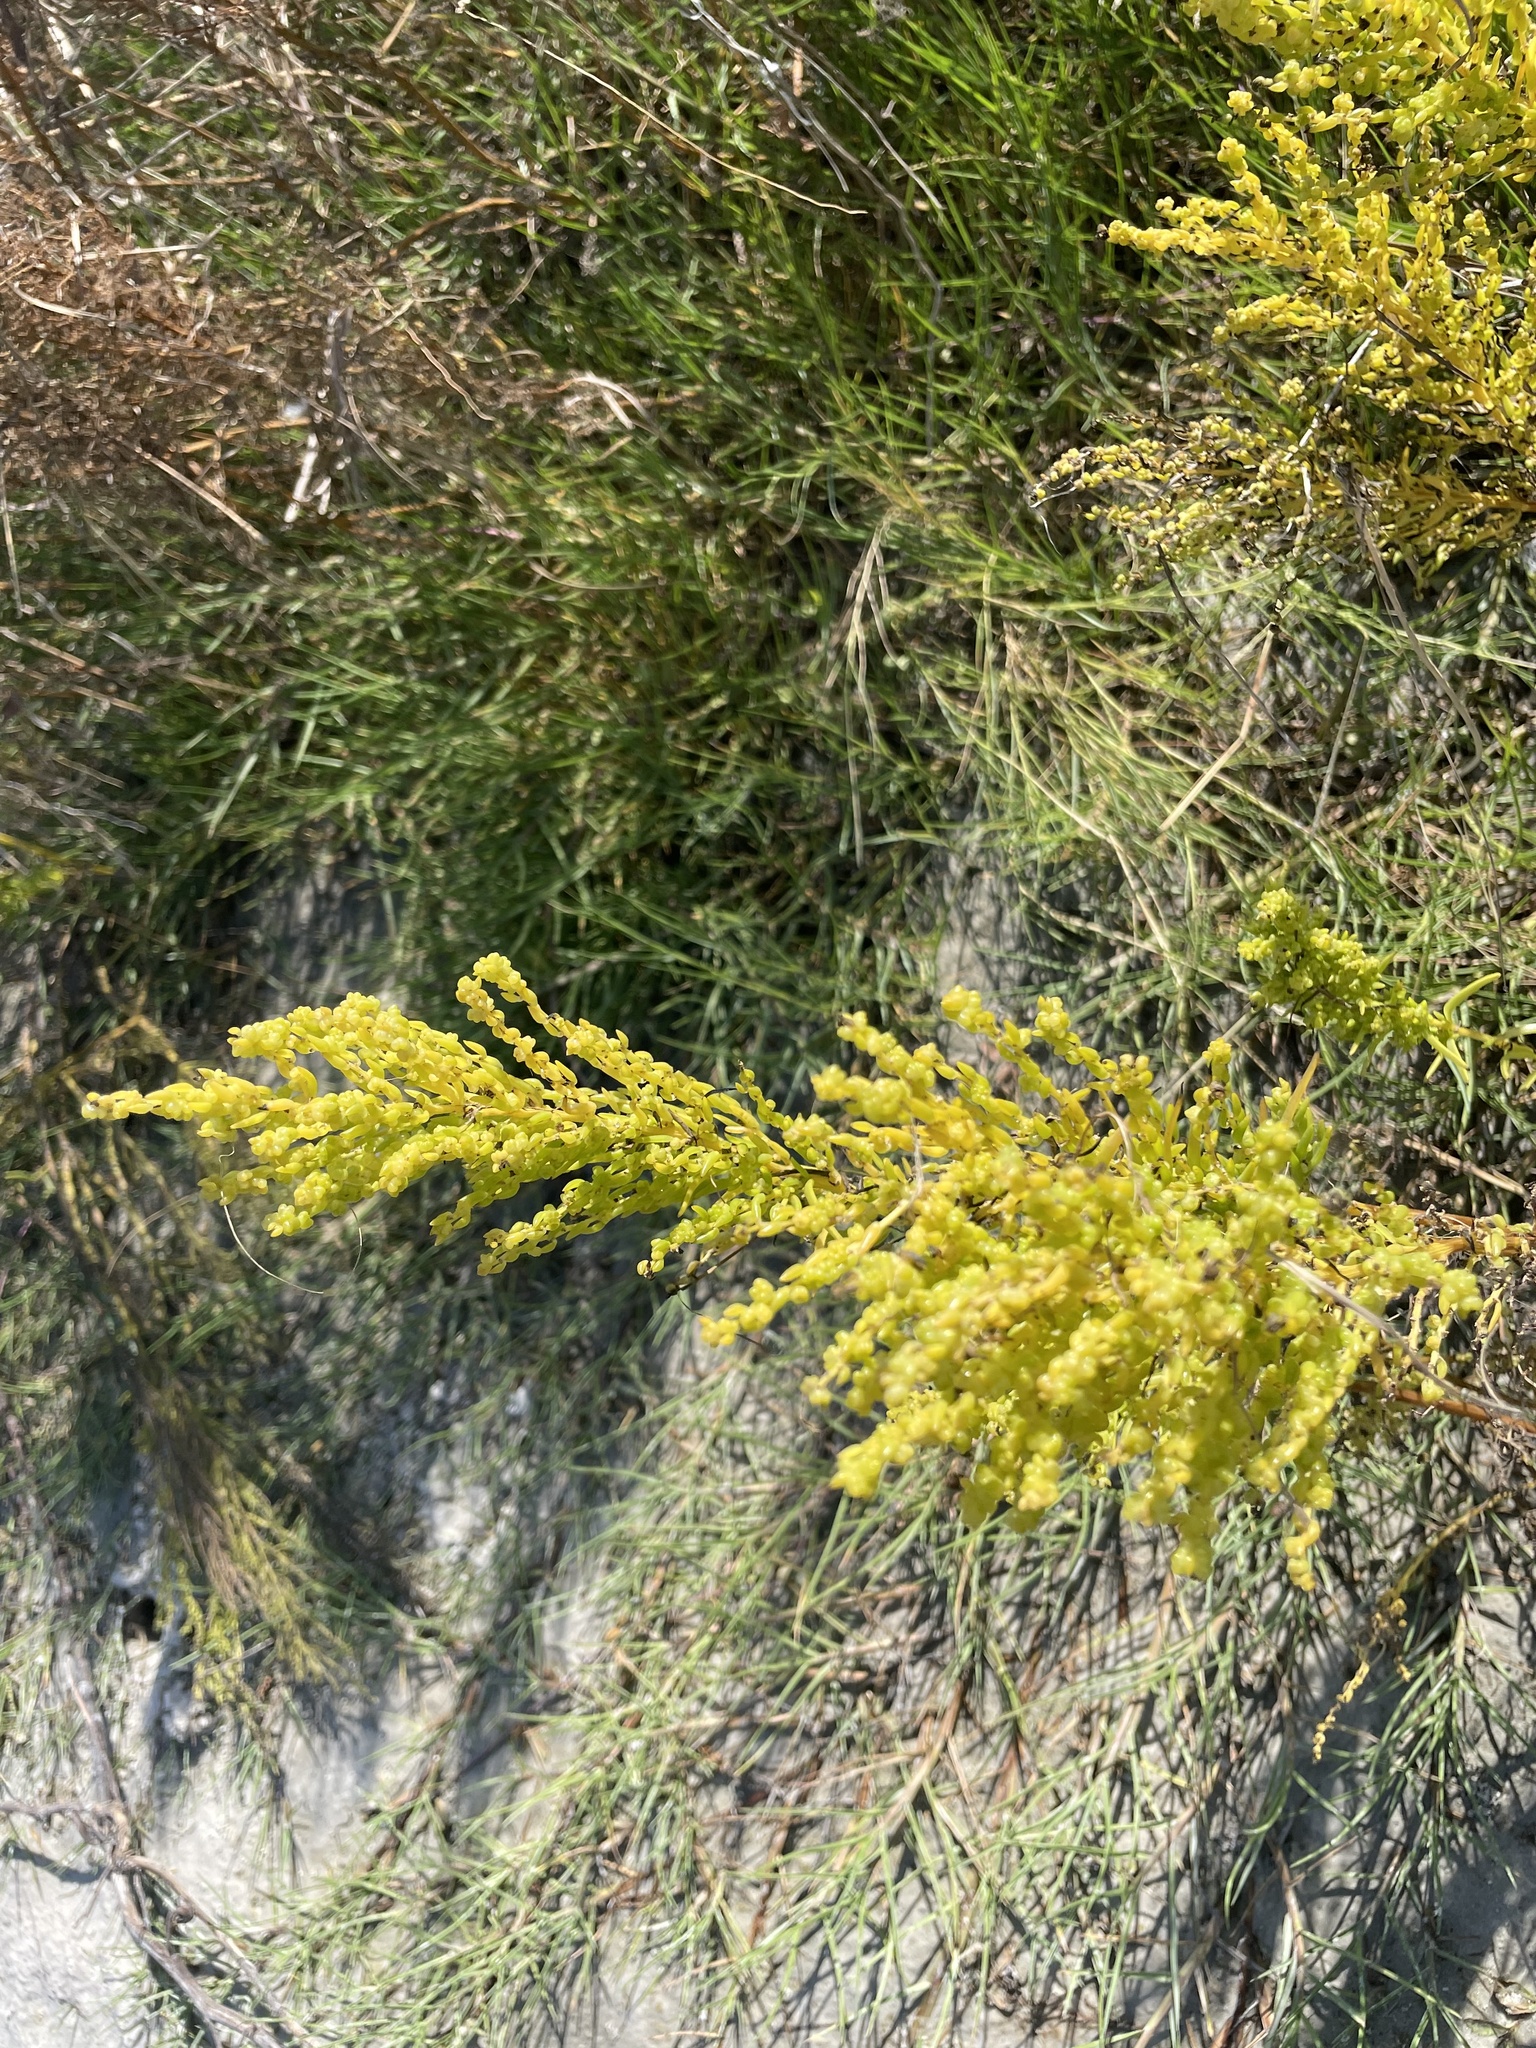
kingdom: Plantae
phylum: Tracheophyta
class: Magnoliopsida
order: Caryophyllales
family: Amaranthaceae
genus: Suaeda
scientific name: Suaeda linearis
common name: Annual seepweed
